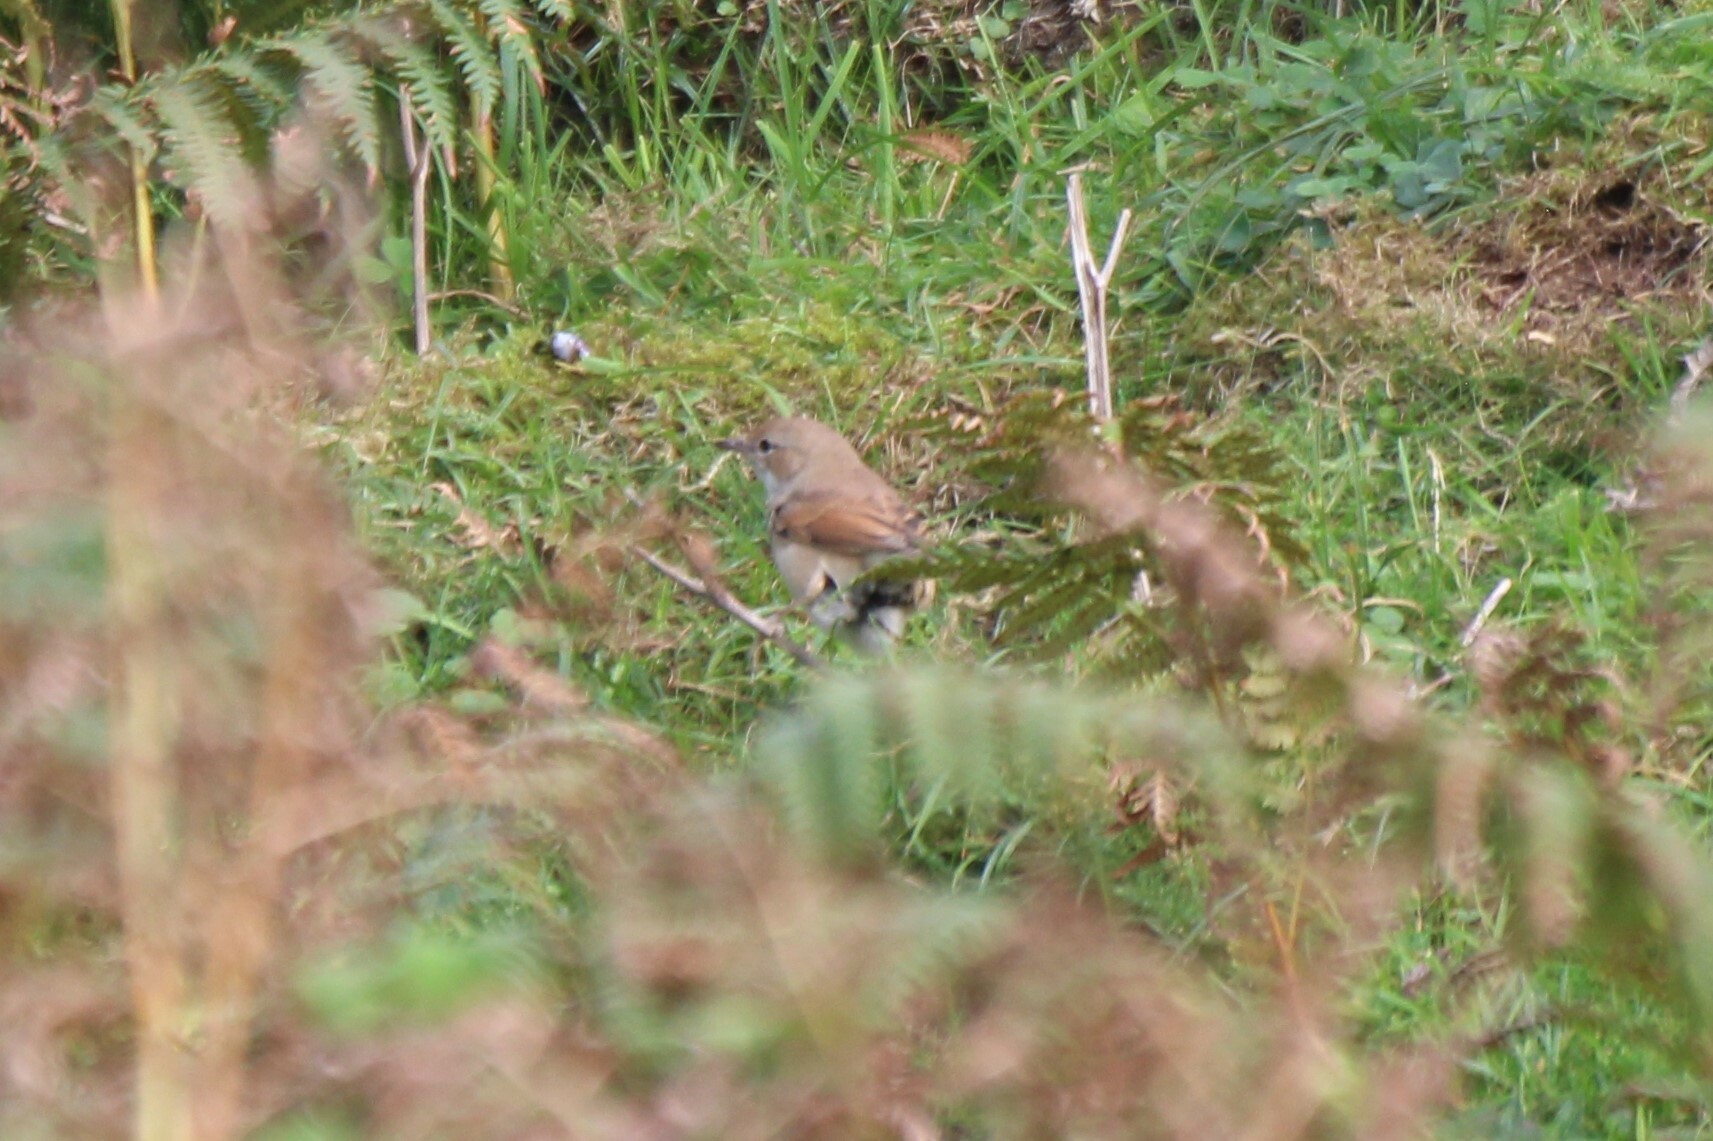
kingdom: Animalia
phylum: Chordata
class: Aves
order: Passeriformes
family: Sylviidae
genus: Sylvia
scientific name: Sylvia communis
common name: Common whitethroat
